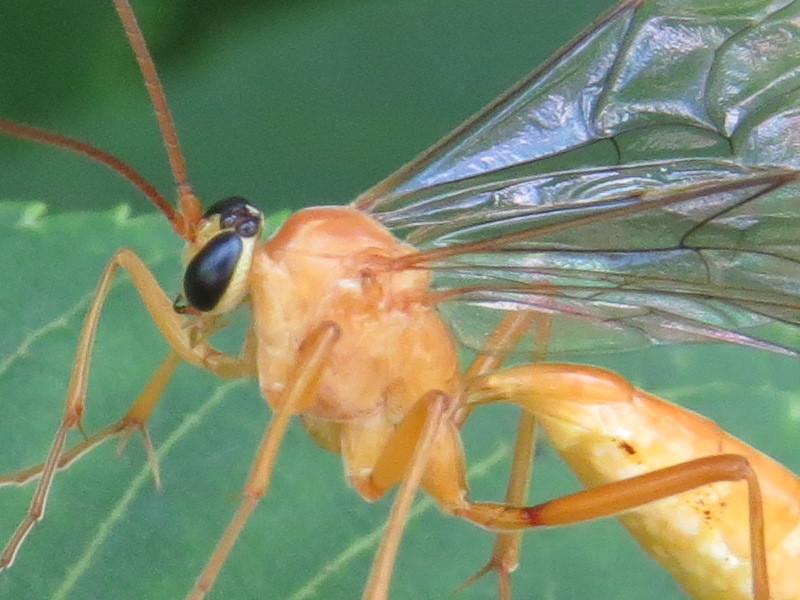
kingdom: Animalia
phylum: Arthropoda
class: Insecta
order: Hymenoptera
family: Ichneumonidae
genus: Netelia
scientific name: Netelia
